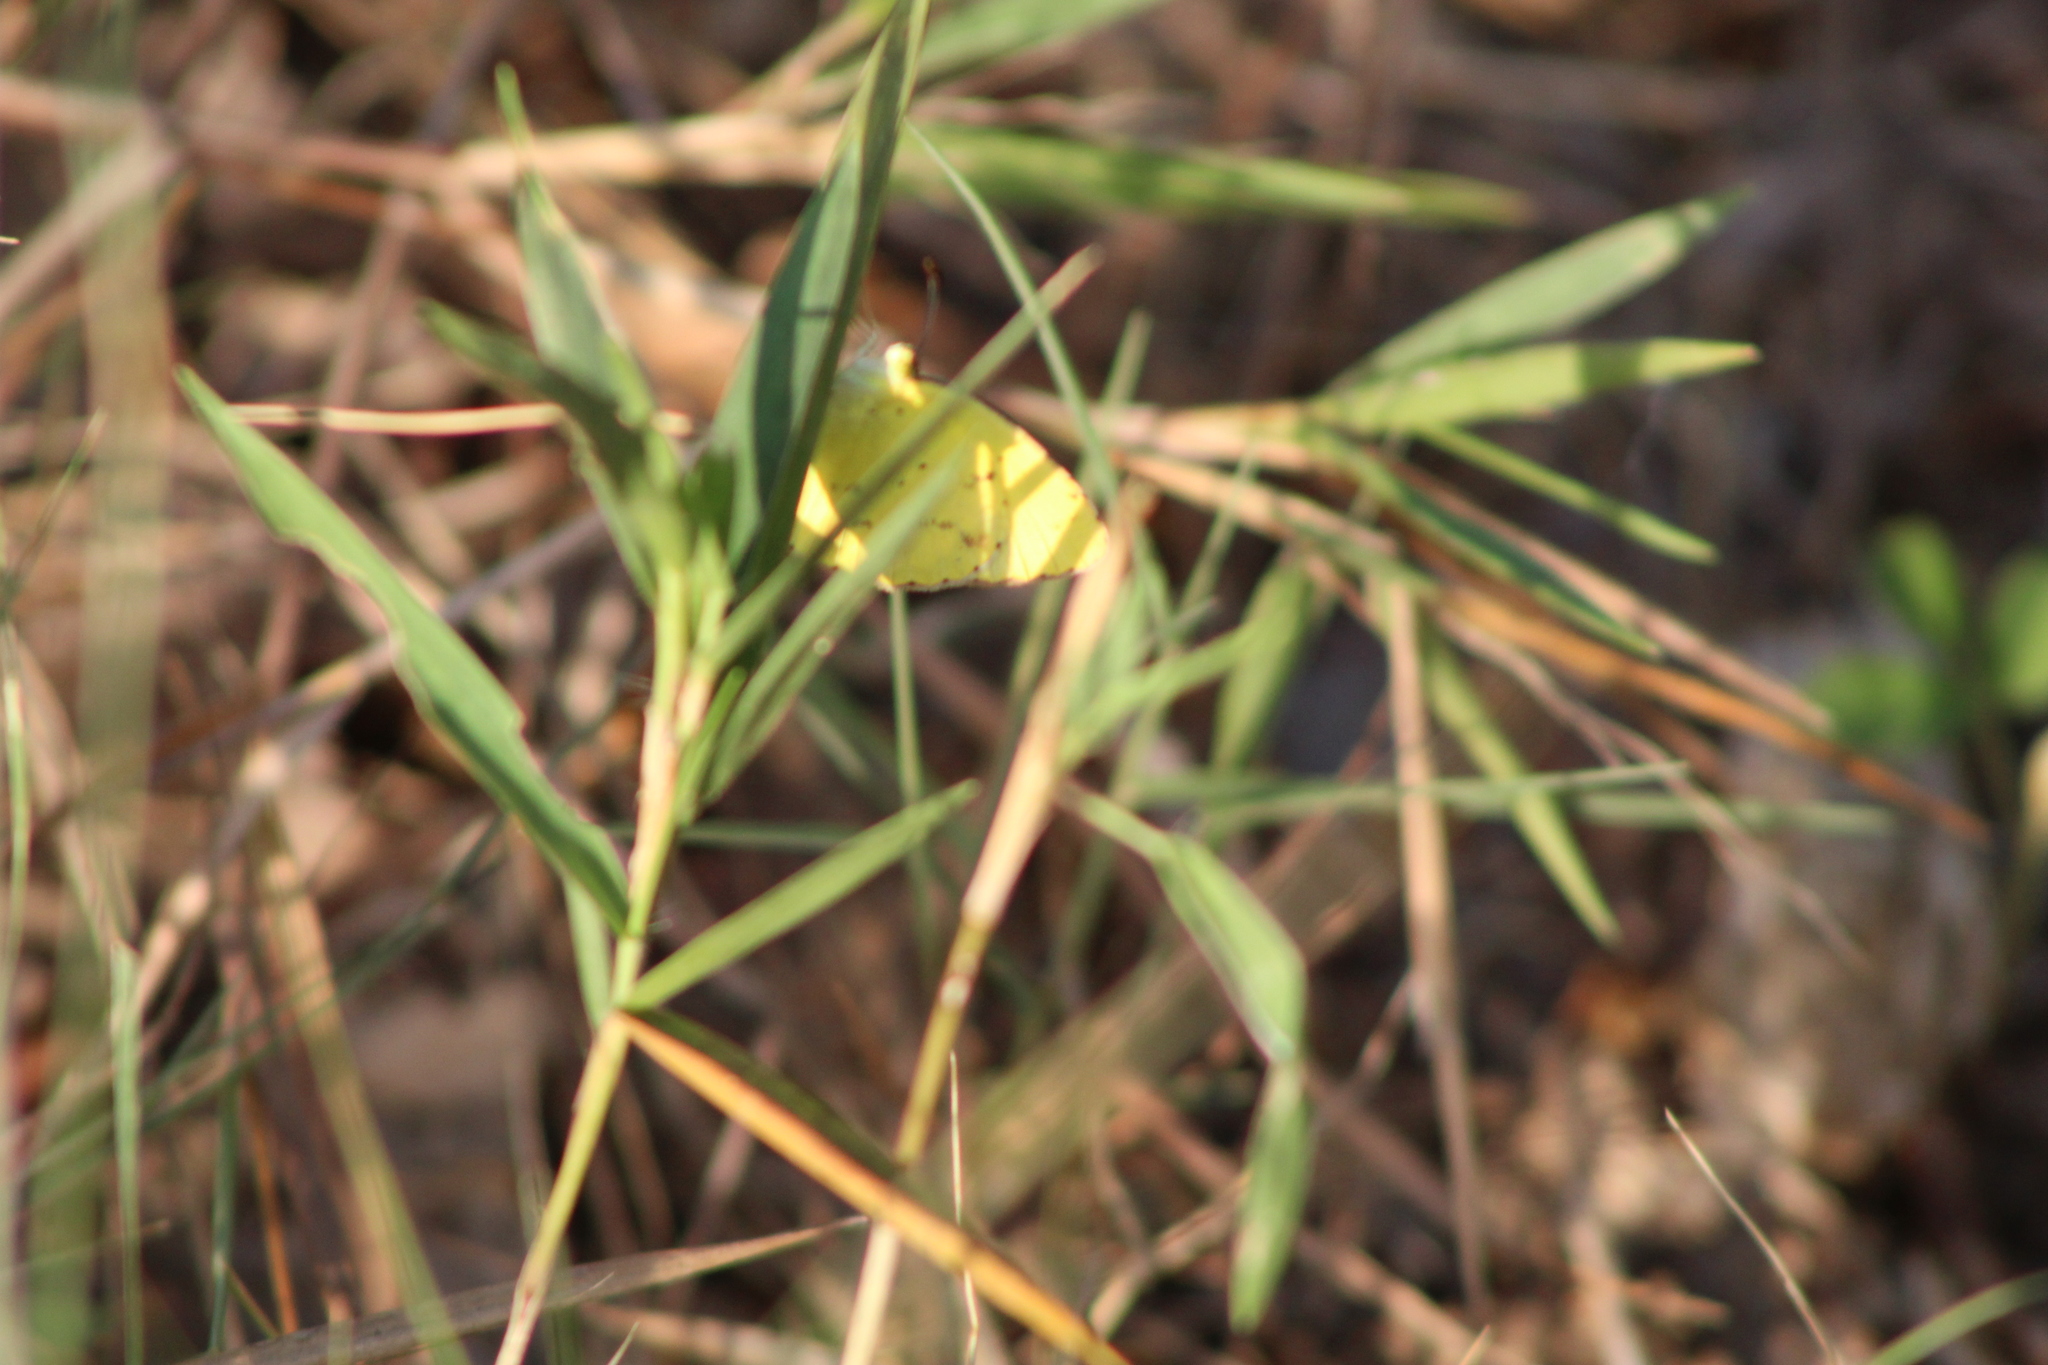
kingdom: Animalia
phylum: Arthropoda
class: Insecta
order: Lepidoptera
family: Pieridae
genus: Pyrisitia
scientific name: Pyrisitia lisa
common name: Little yellow
